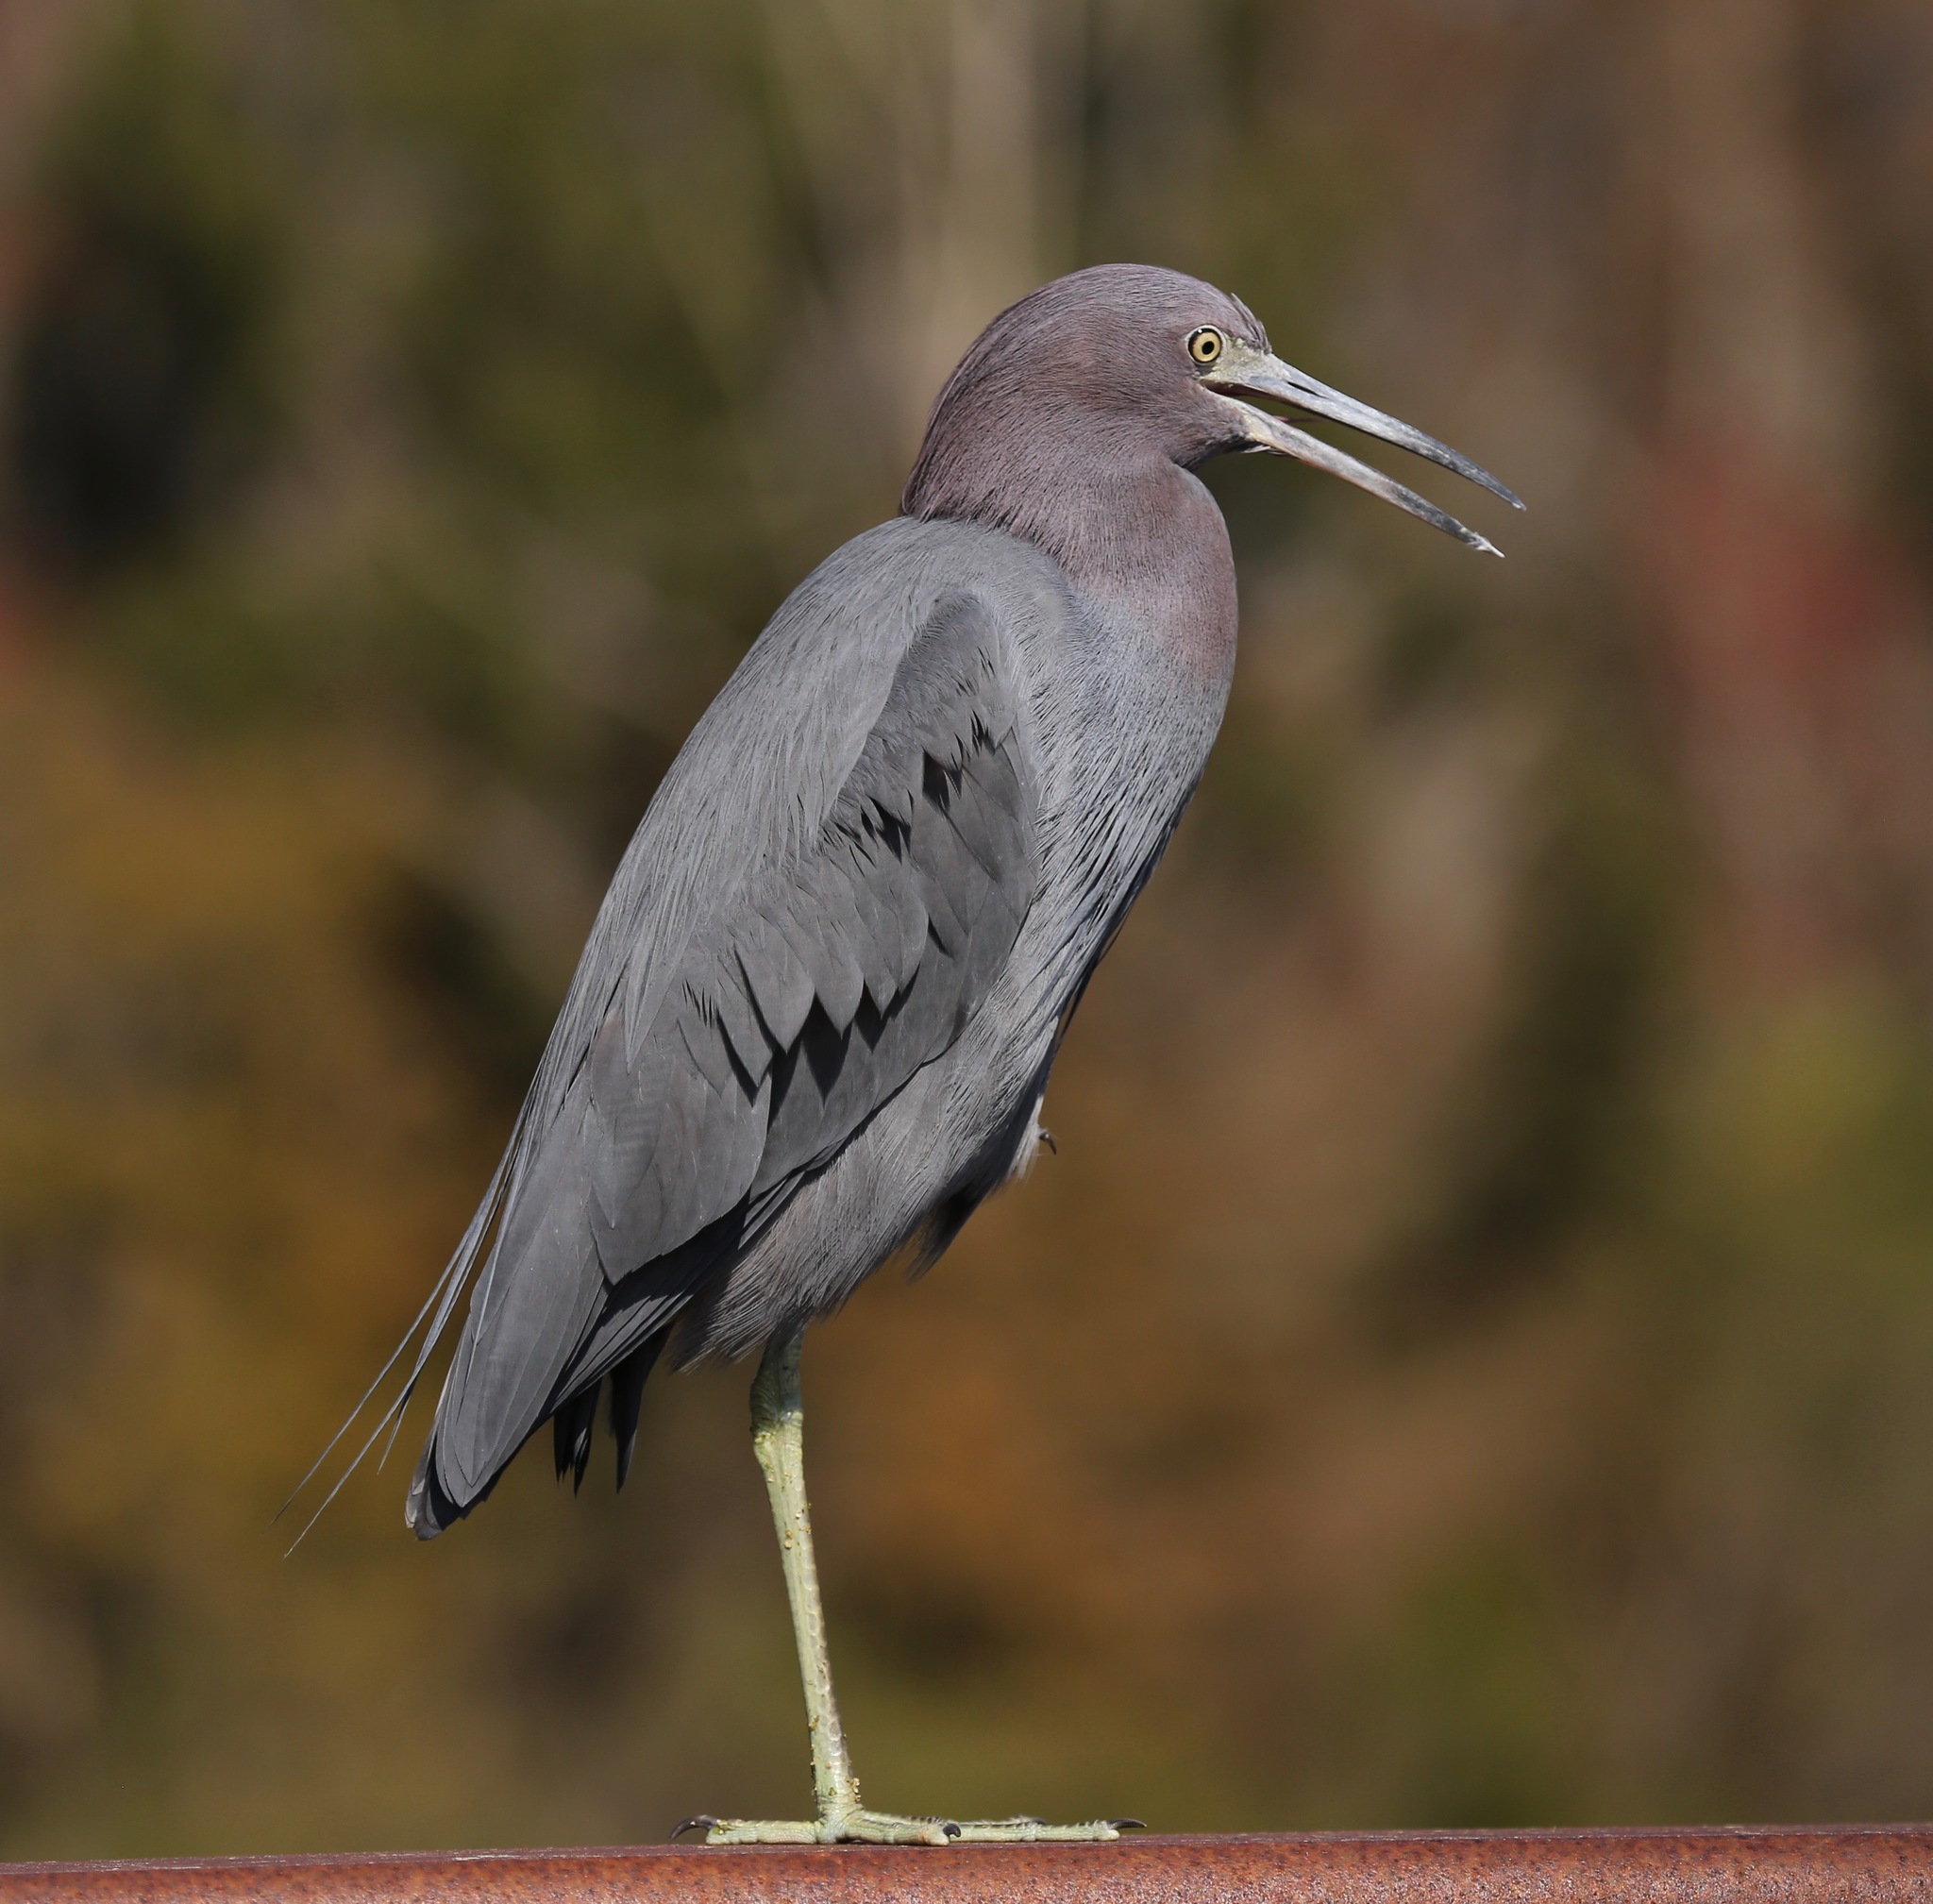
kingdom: Animalia
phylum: Chordata
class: Aves
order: Pelecaniformes
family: Ardeidae
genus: Egretta
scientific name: Egretta caerulea
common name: Little blue heron
